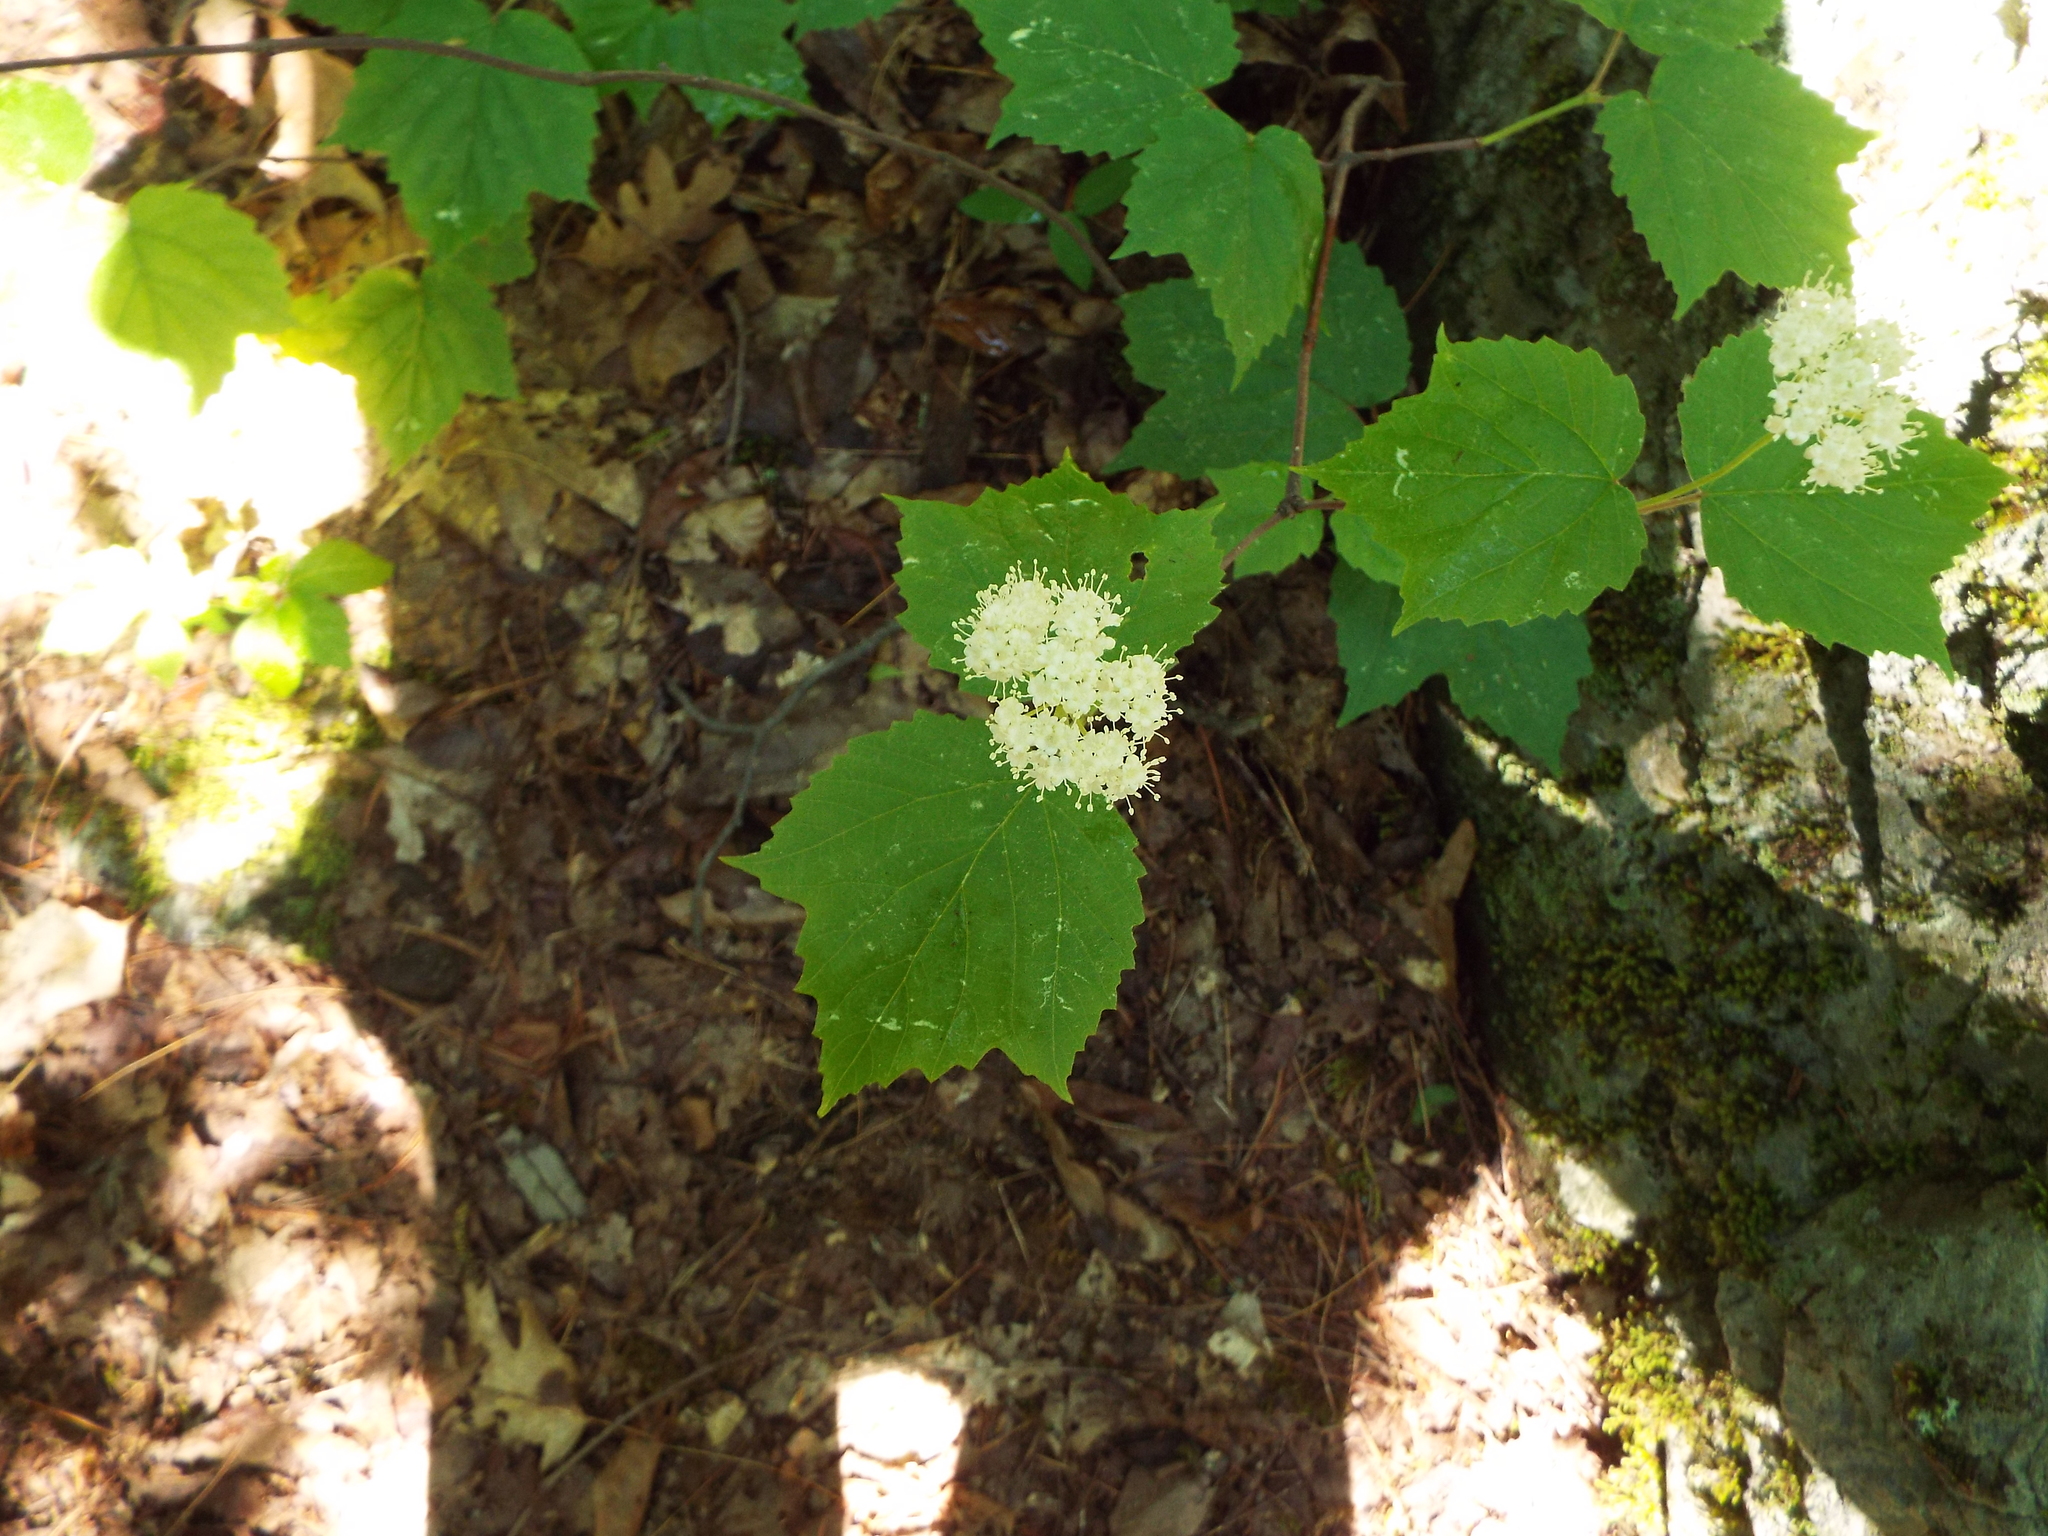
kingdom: Plantae
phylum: Tracheophyta
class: Magnoliopsida
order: Dipsacales
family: Viburnaceae
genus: Viburnum
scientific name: Viburnum acerifolium
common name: Dockmackie
